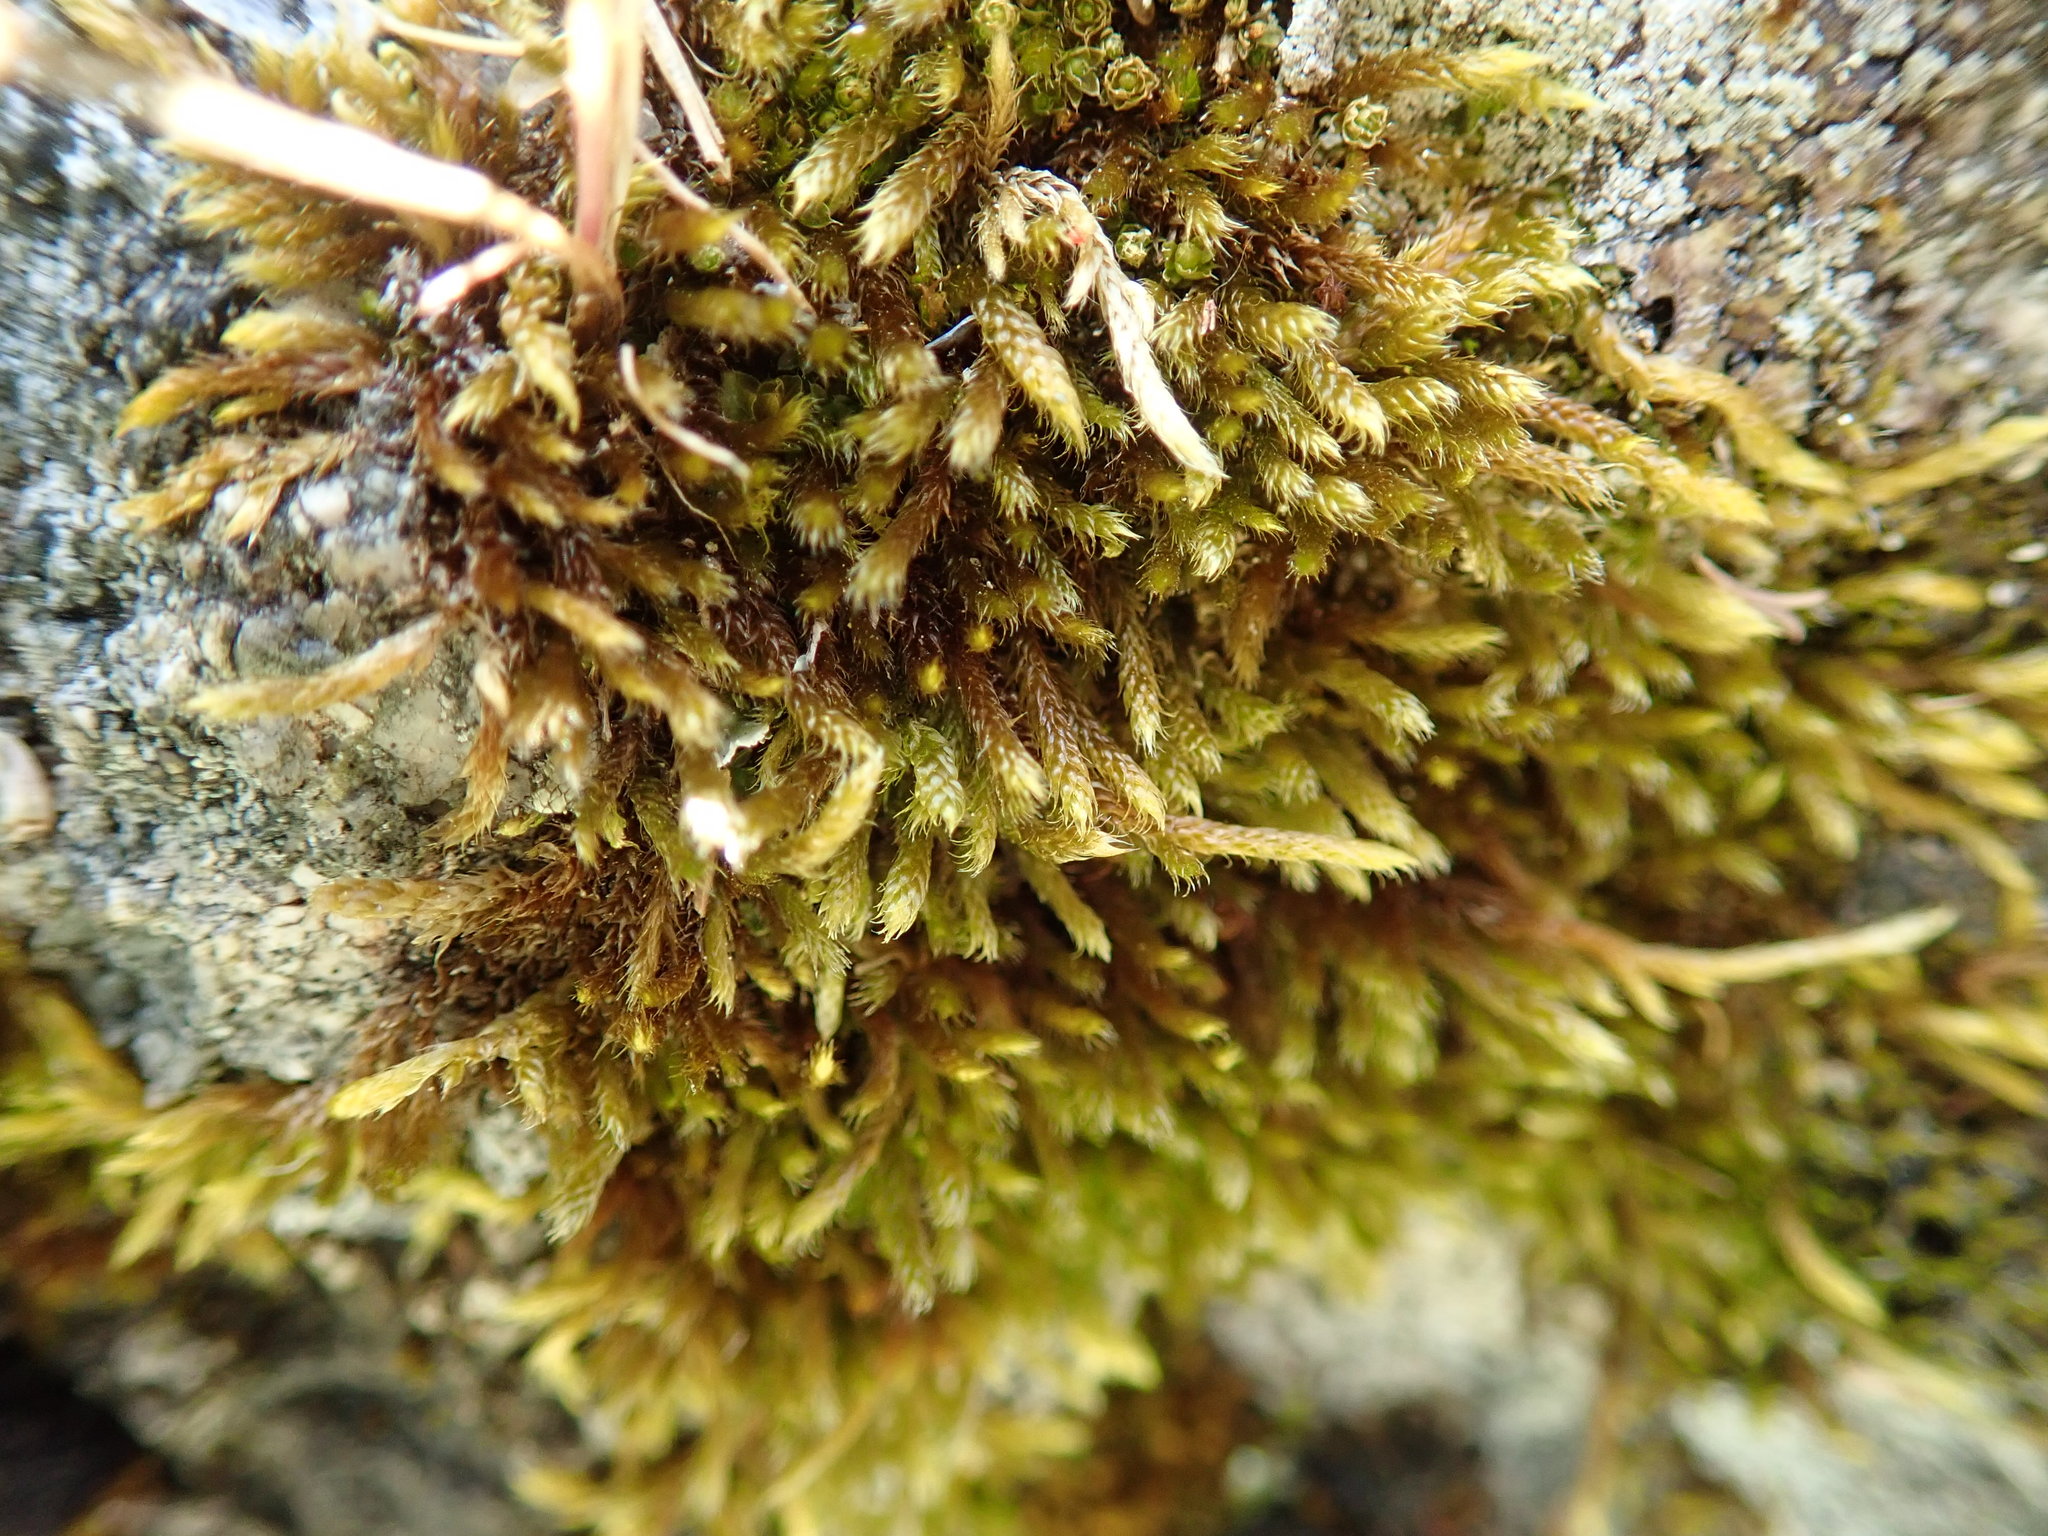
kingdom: Plantae
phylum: Bryophyta
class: Bryopsida
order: Hypnales
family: Hypnaceae
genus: Hypnum
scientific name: Hypnum cupressiforme
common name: Cypress-leaved plait-moss
